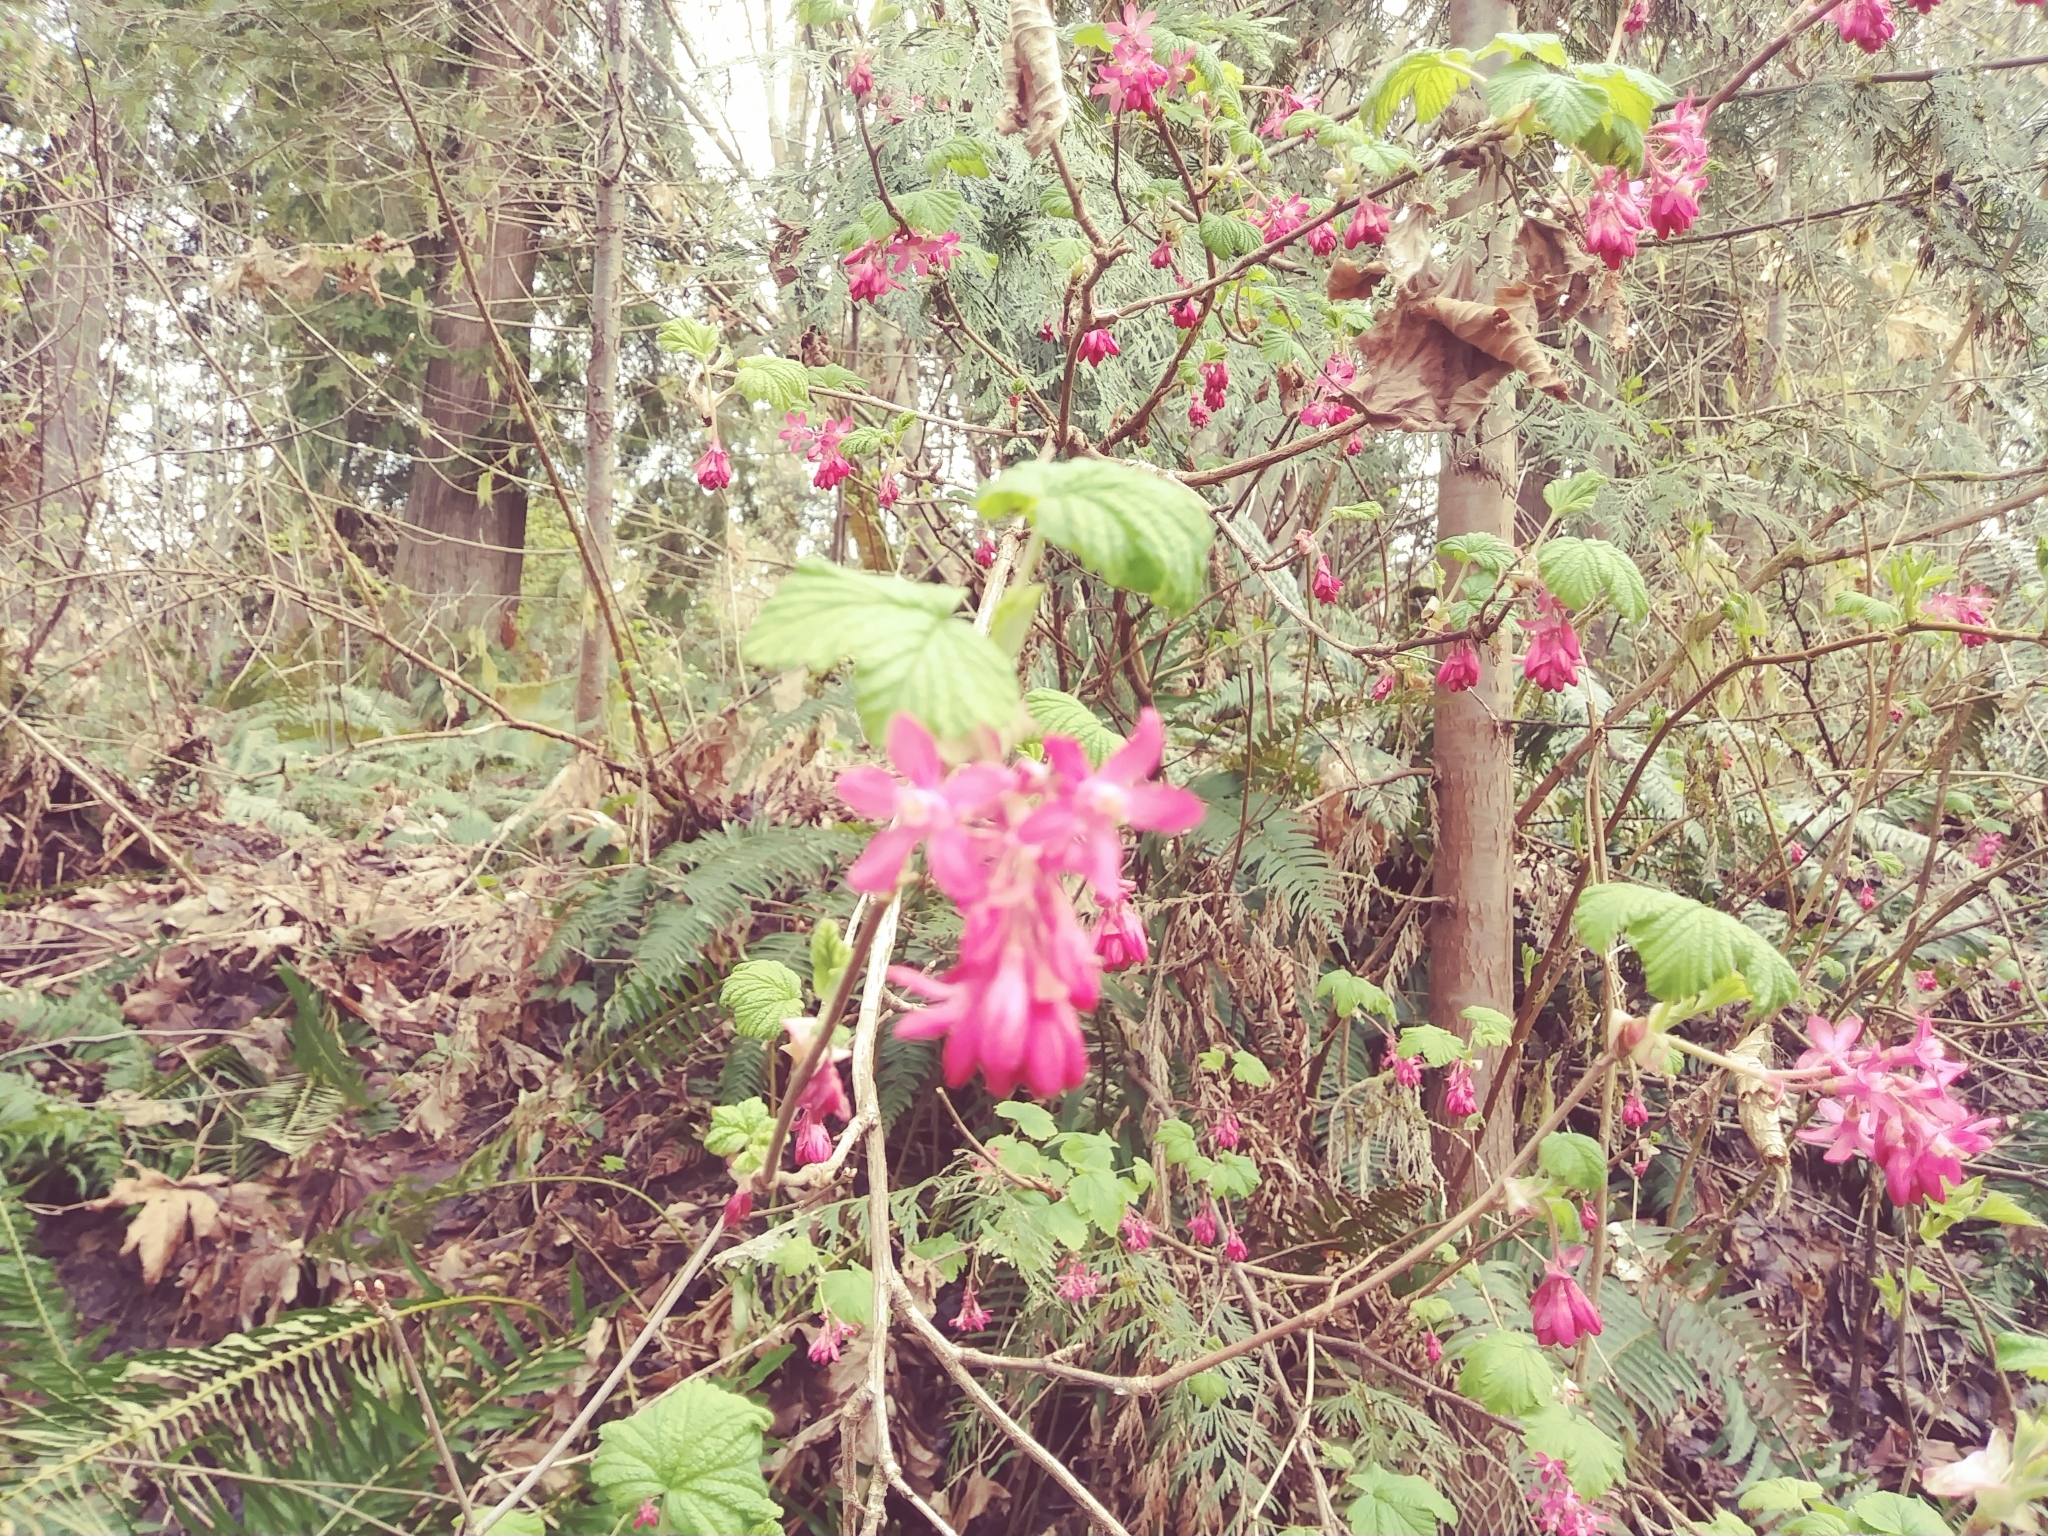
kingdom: Plantae
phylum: Tracheophyta
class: Magnoliopsida
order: Saxifragales
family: Grossulariaceae
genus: Ribes
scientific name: Ribes sanguineum
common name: Flowering currant
